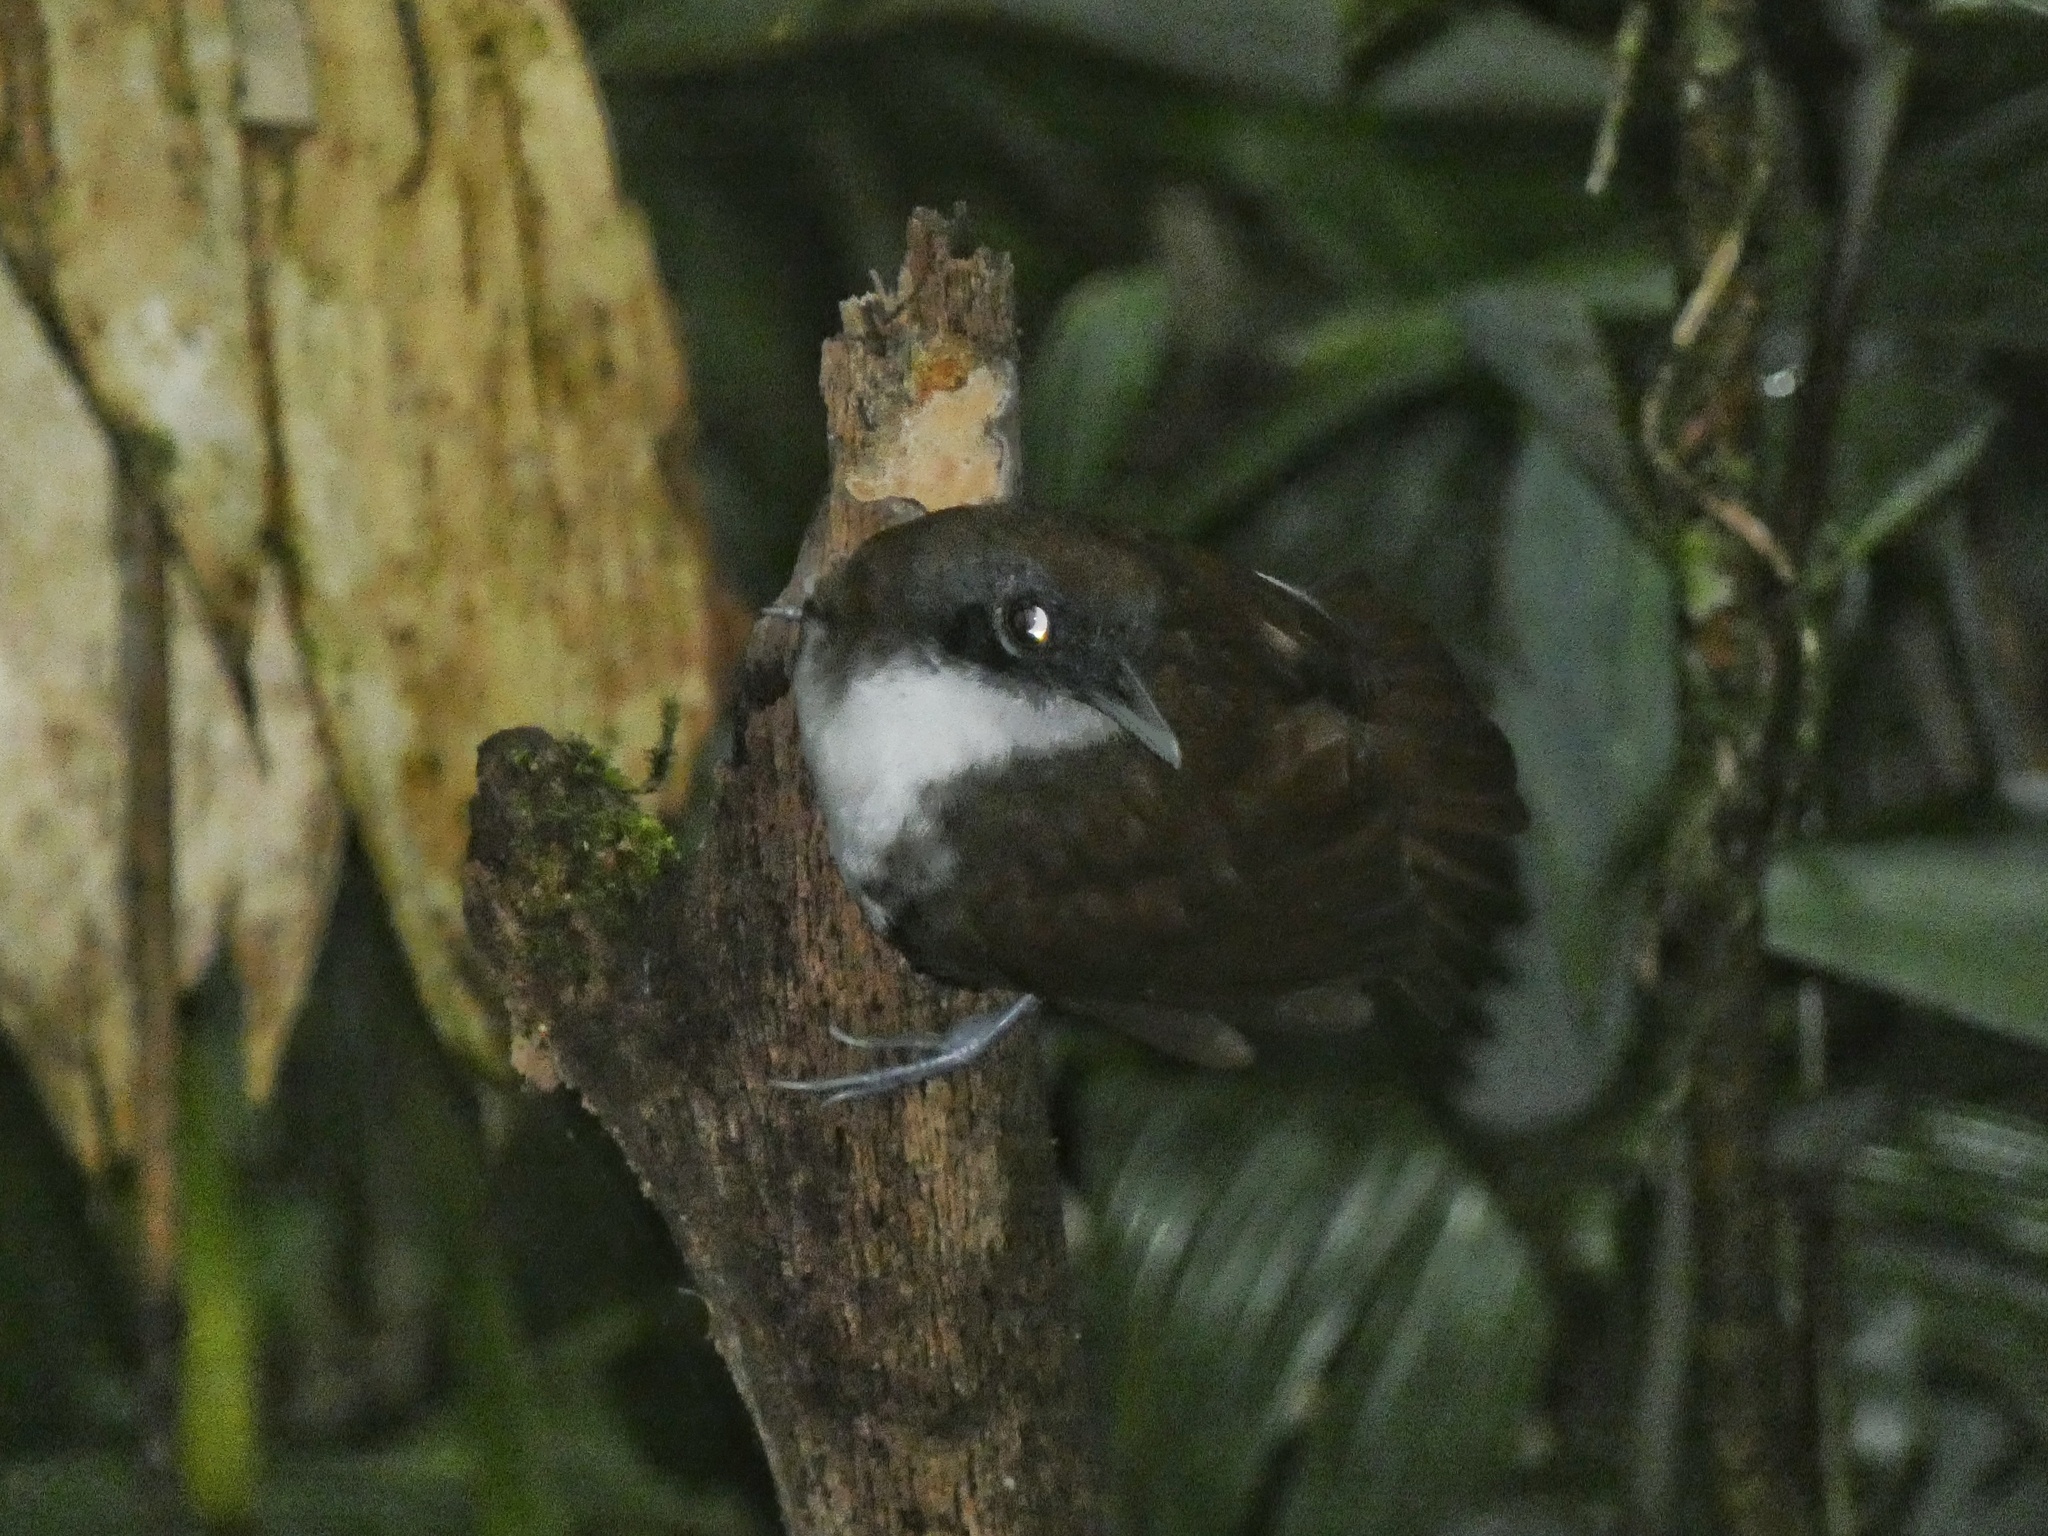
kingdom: Animalia
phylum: Chordata
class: Aves
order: Passeriformes
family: Thamnophilidae
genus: Gymnopithys
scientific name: Gymnopithys leucaspis
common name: White-cheeked antbird
